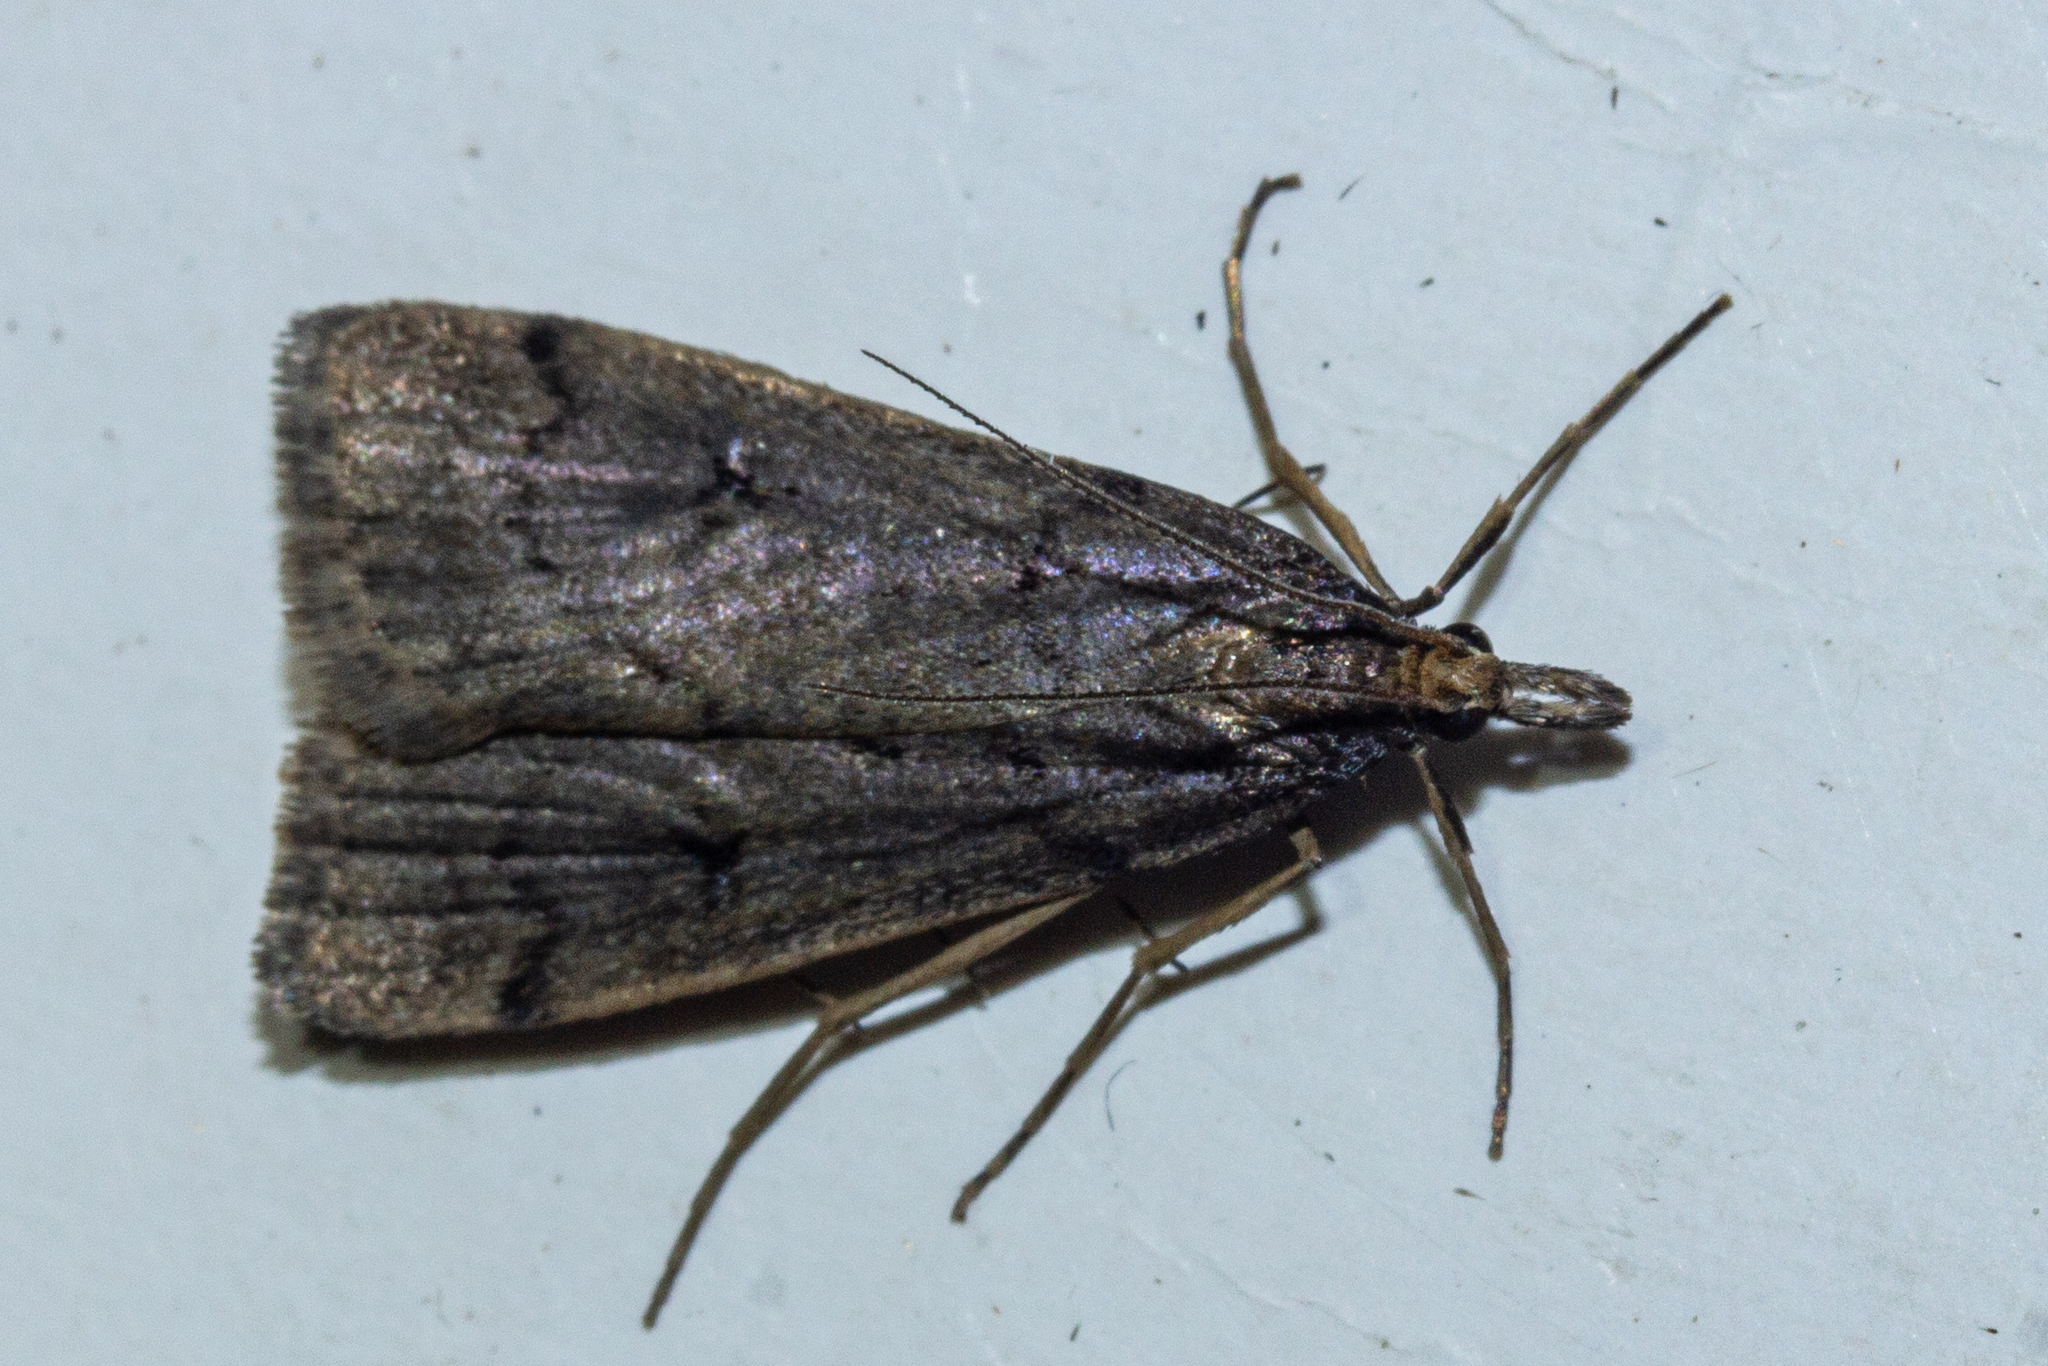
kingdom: Animalia
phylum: Arthropoda
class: Insecta
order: Lepidoptera
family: Crambidae
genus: Scoparia
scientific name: Scoparia fumata
